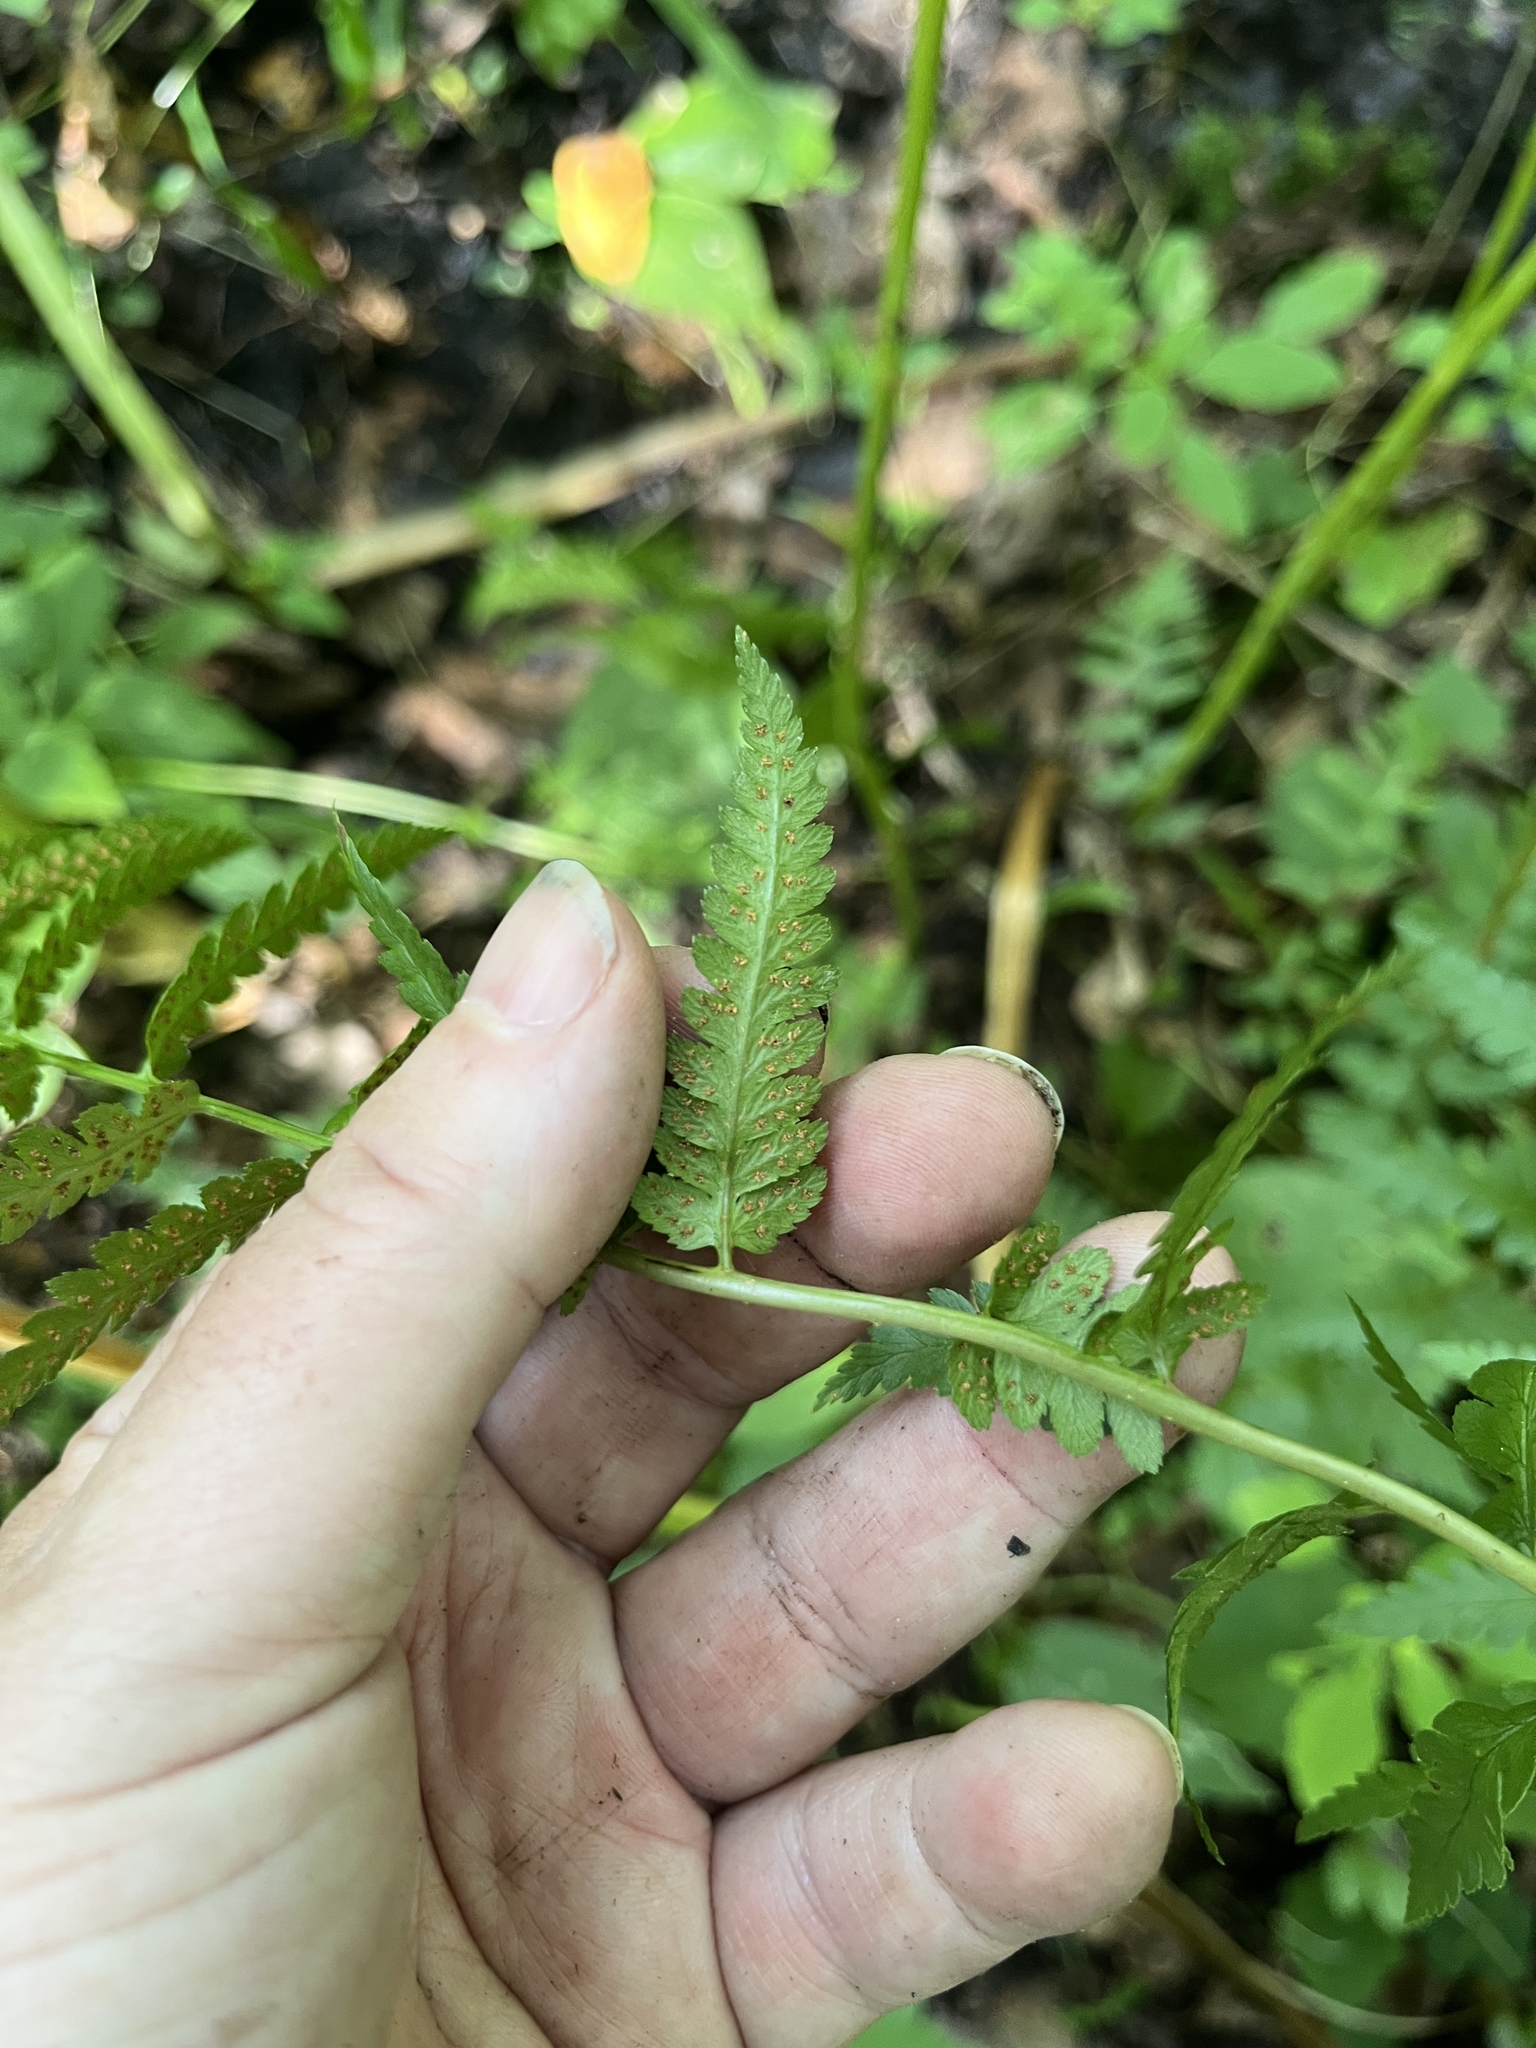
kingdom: Plantae
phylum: Tracheophyta
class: Polypodiopsida
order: Polypodiales
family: Dryopteridaceae
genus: Dryopteris
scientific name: Dryopteris cristata
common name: Crested wood fern
